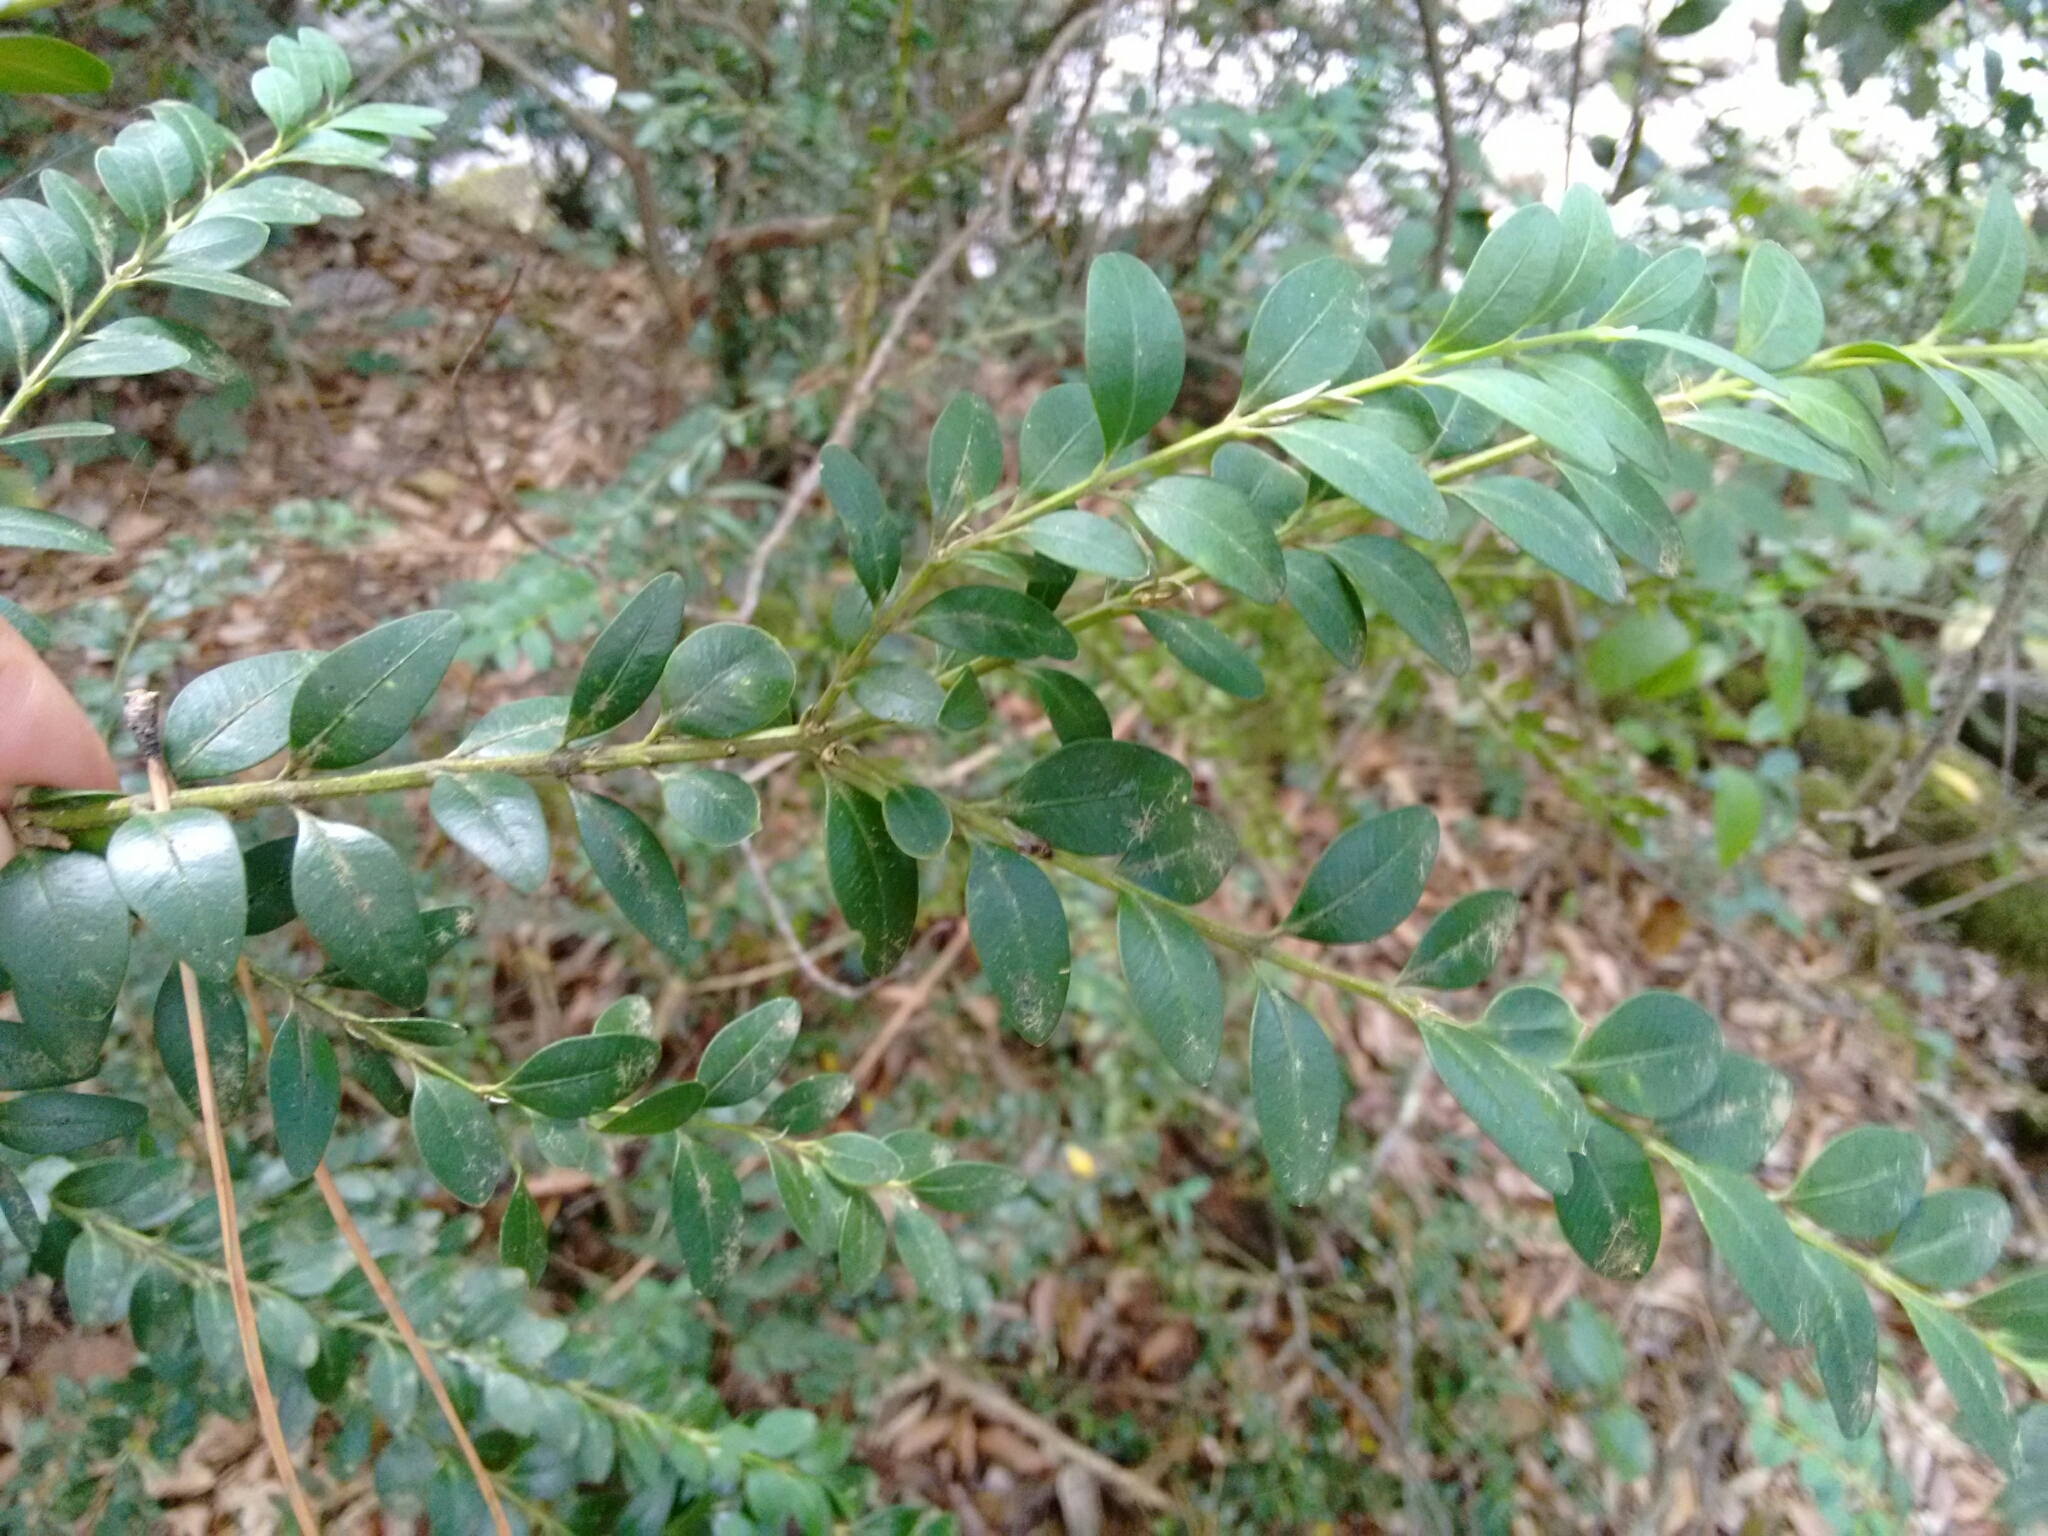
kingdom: Plantae
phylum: Tracheophyta
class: Magnoliopsida
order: Buxales
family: Buxaceae
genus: Buxus
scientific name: Buxus sempervirens
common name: Box
